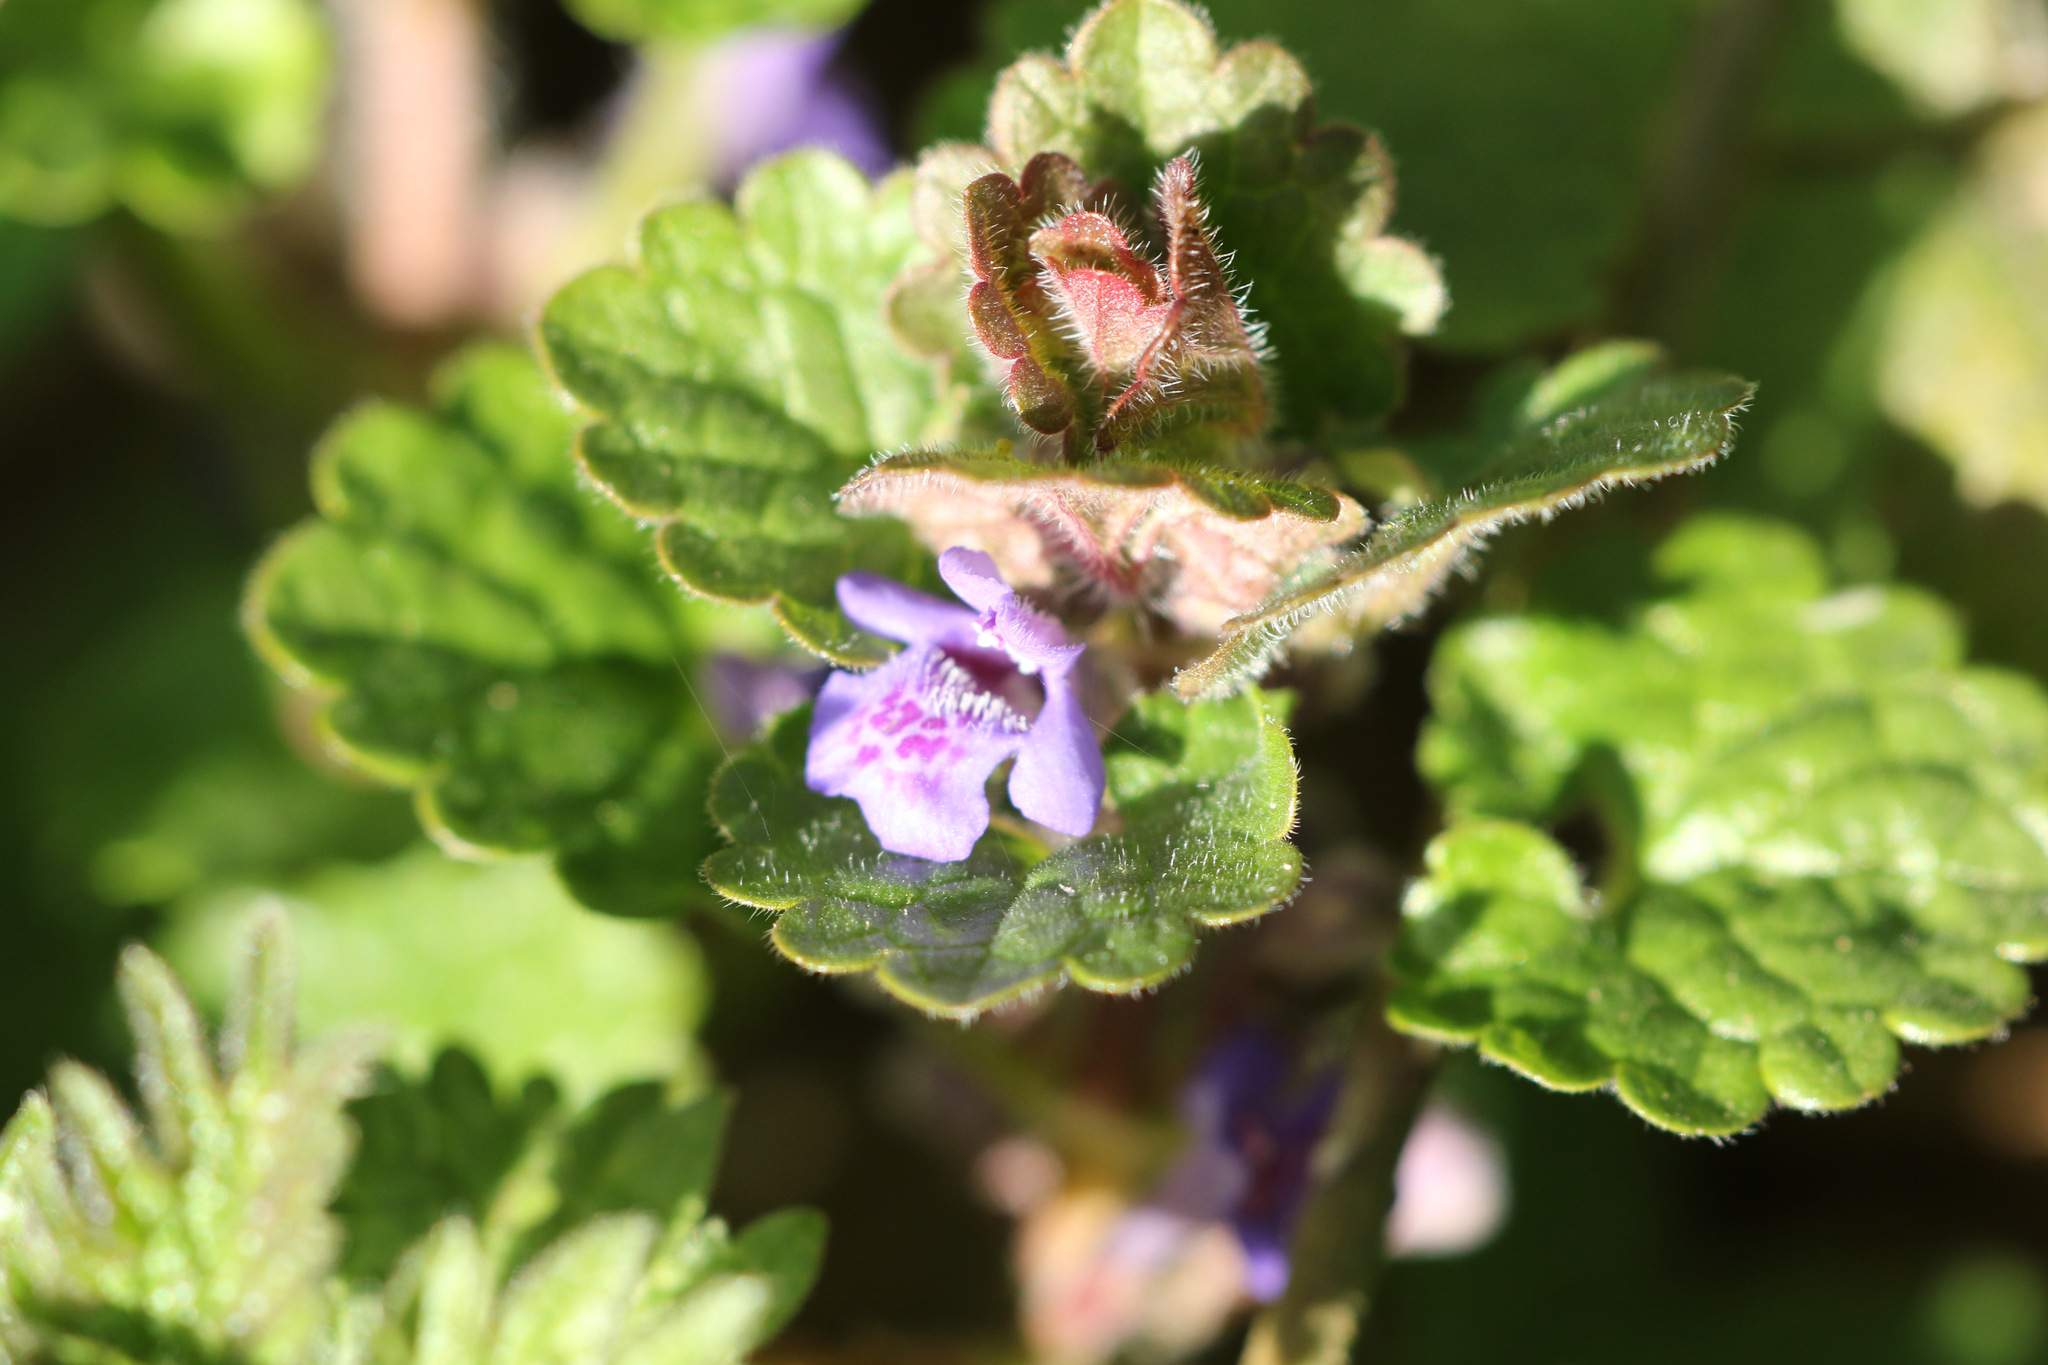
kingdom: Plantae
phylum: Tracheophyta
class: Magnoliopsida
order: Lamiales
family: Lamiaceae
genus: Glechoma
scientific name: Glechoma hederacea
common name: Ground ivy
